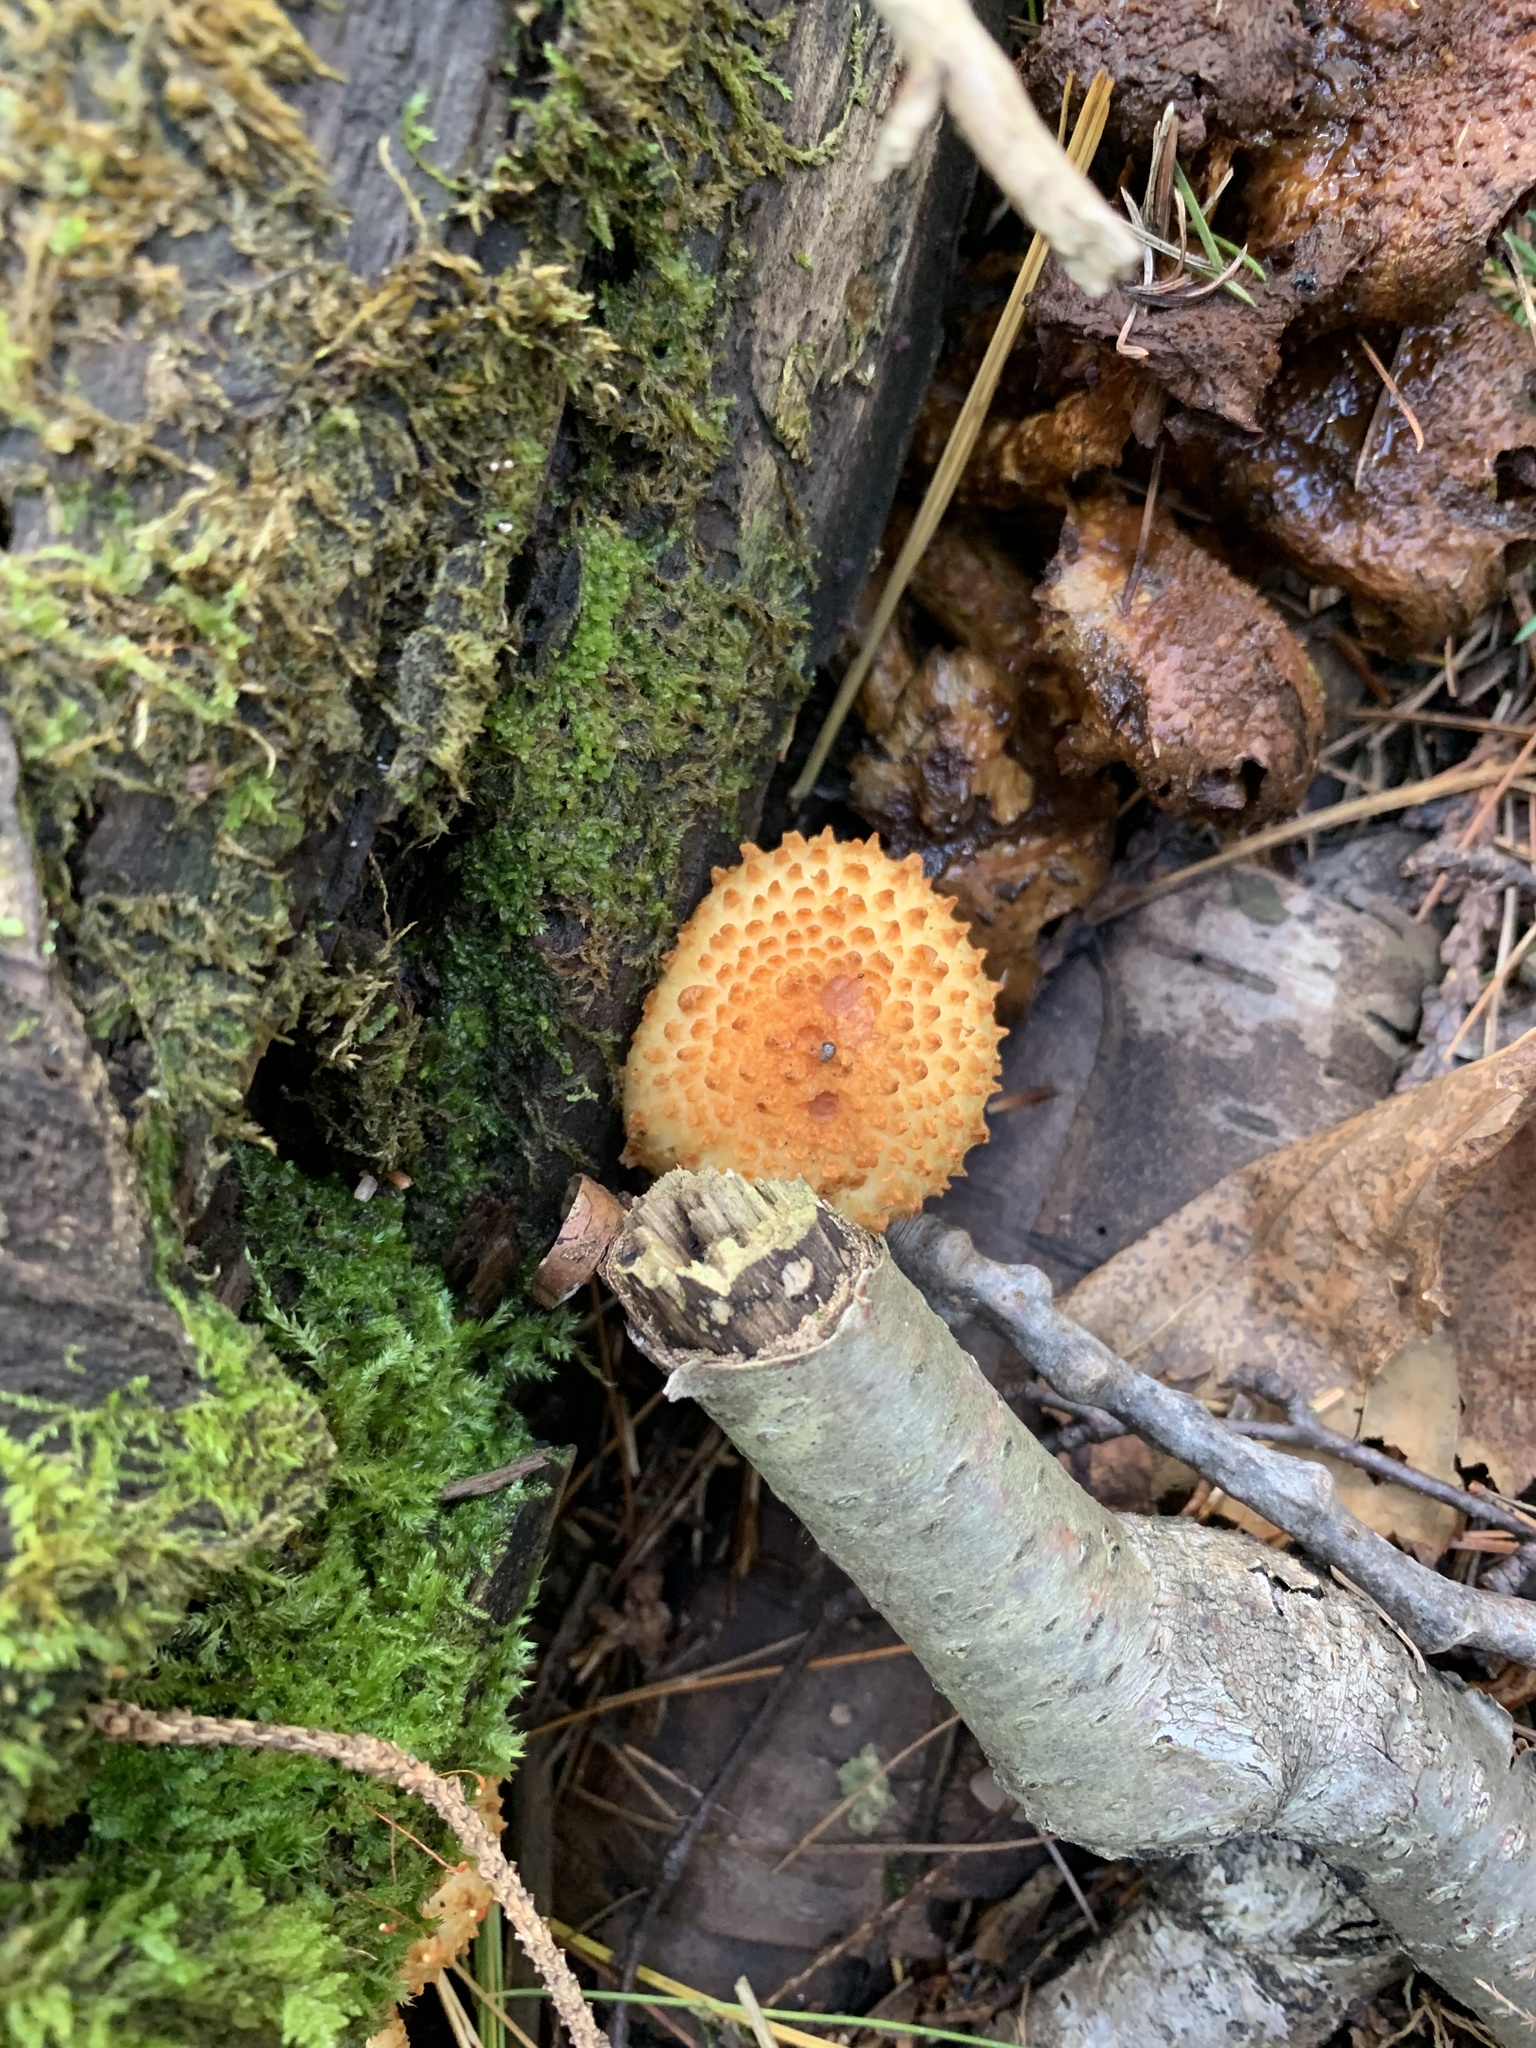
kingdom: Fungi
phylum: Basidiomycota
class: Agaricomycetes
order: Agaricales
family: Strophariaceae
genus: Pholiota
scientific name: Pholiota squarrosoides
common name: Sharp-scaly pholiota
